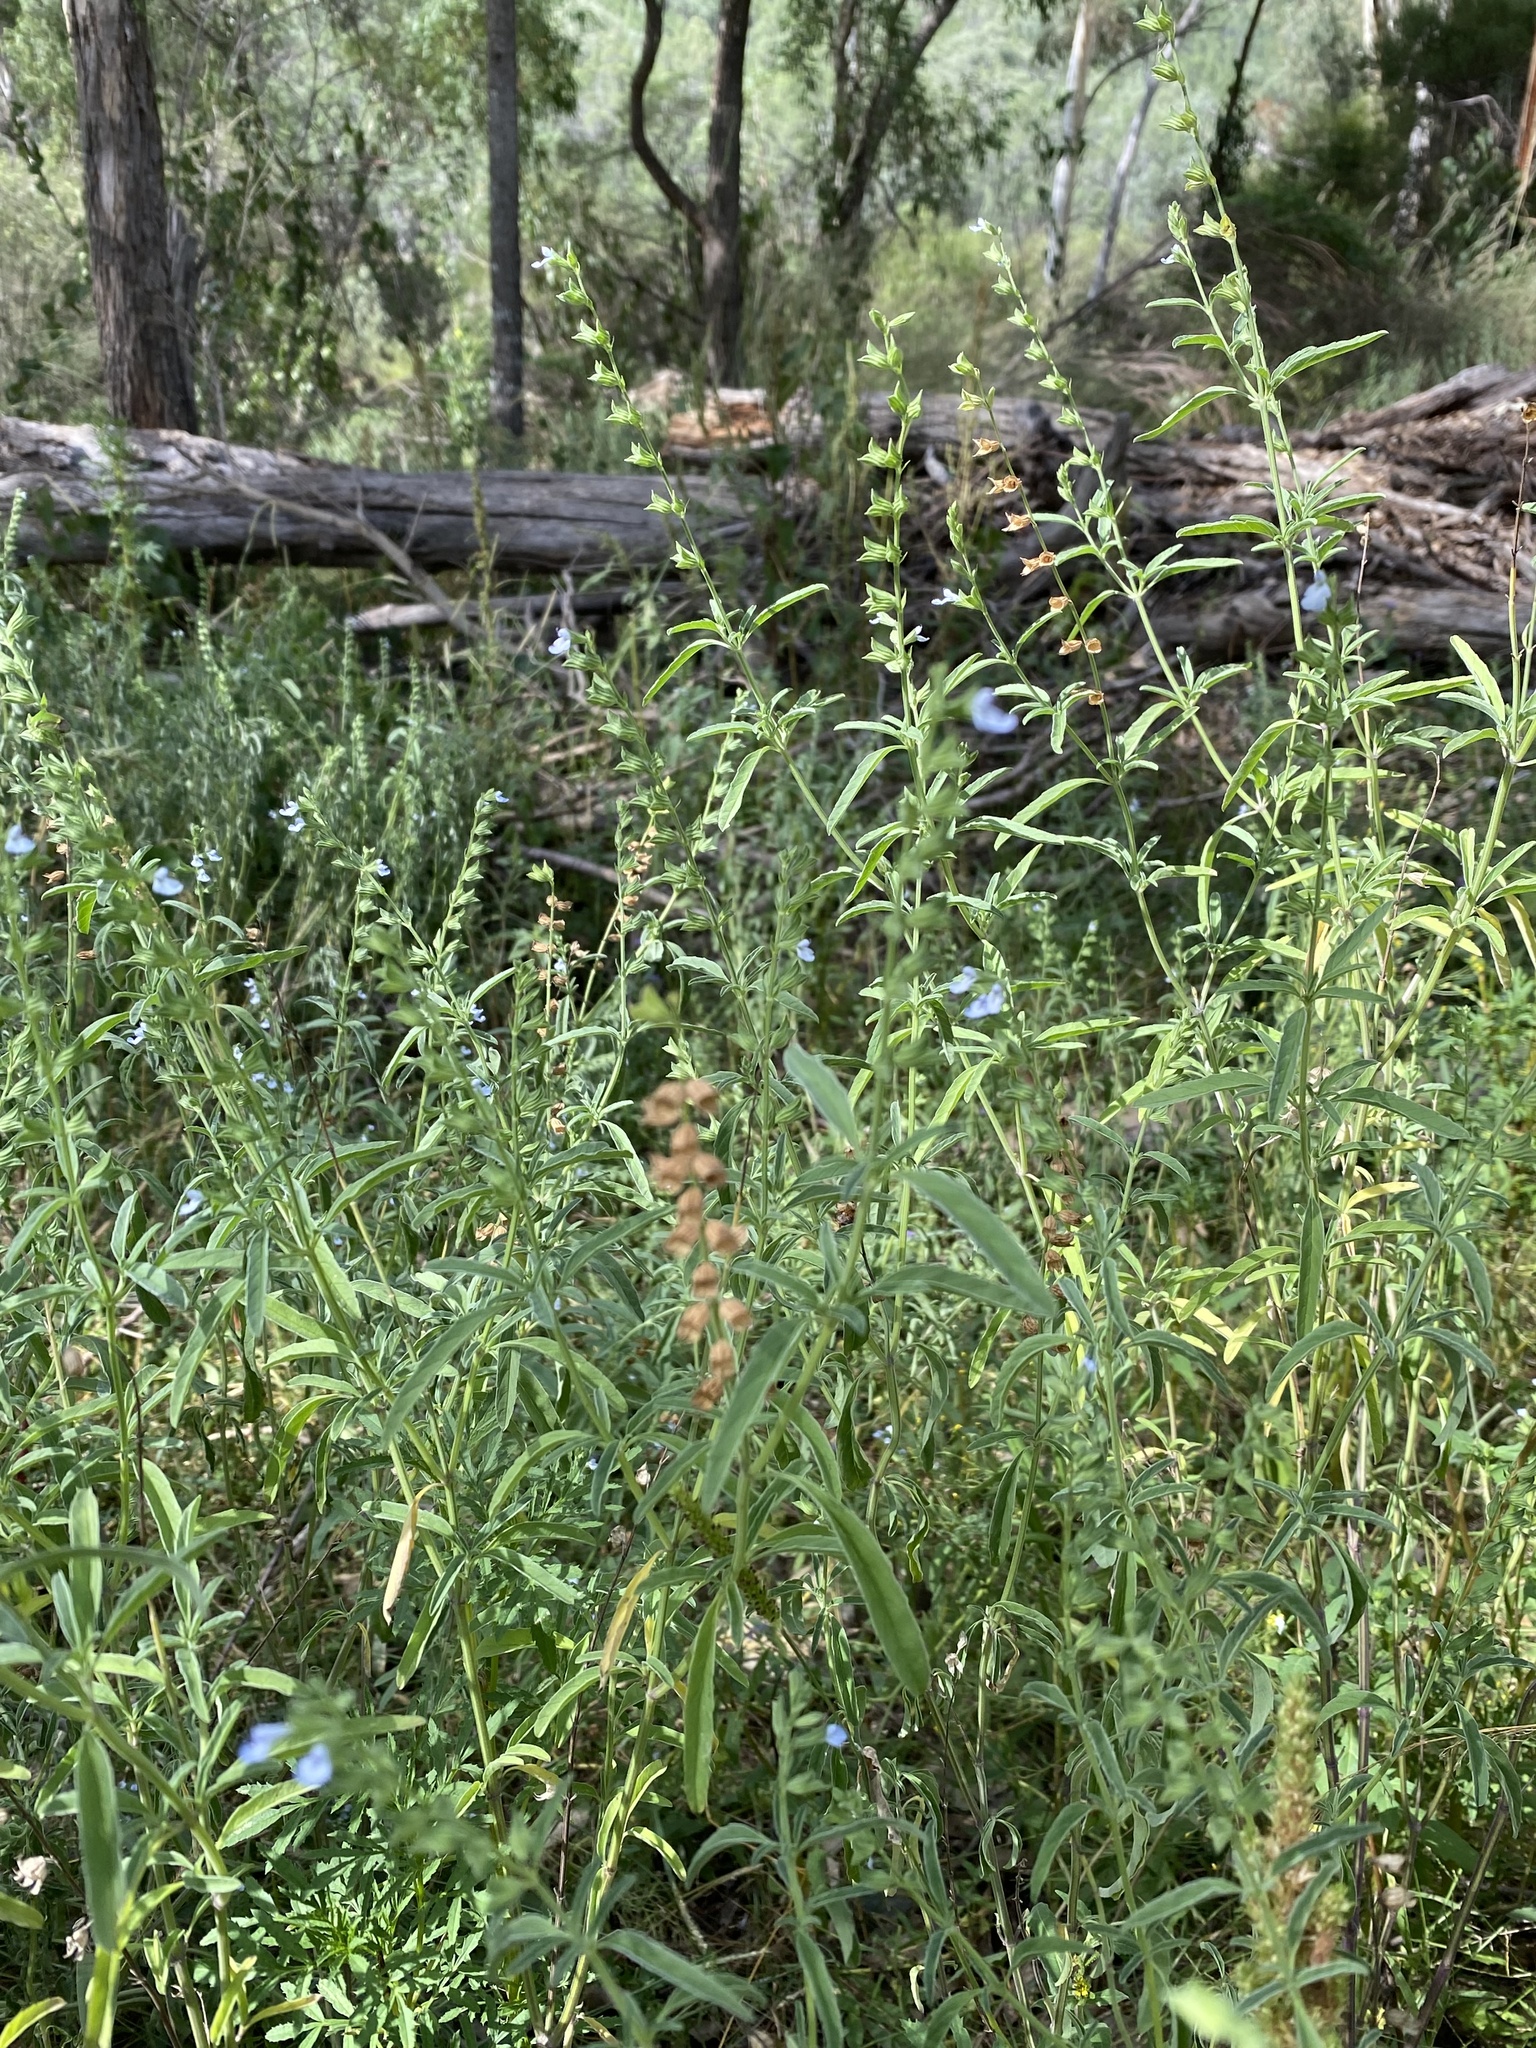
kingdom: Plantae
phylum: Tracheophyta
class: Magnoliopsida
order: Lamiales
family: Lamiaceae
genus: Salvia
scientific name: Salvia reflexa
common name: Mintweed
